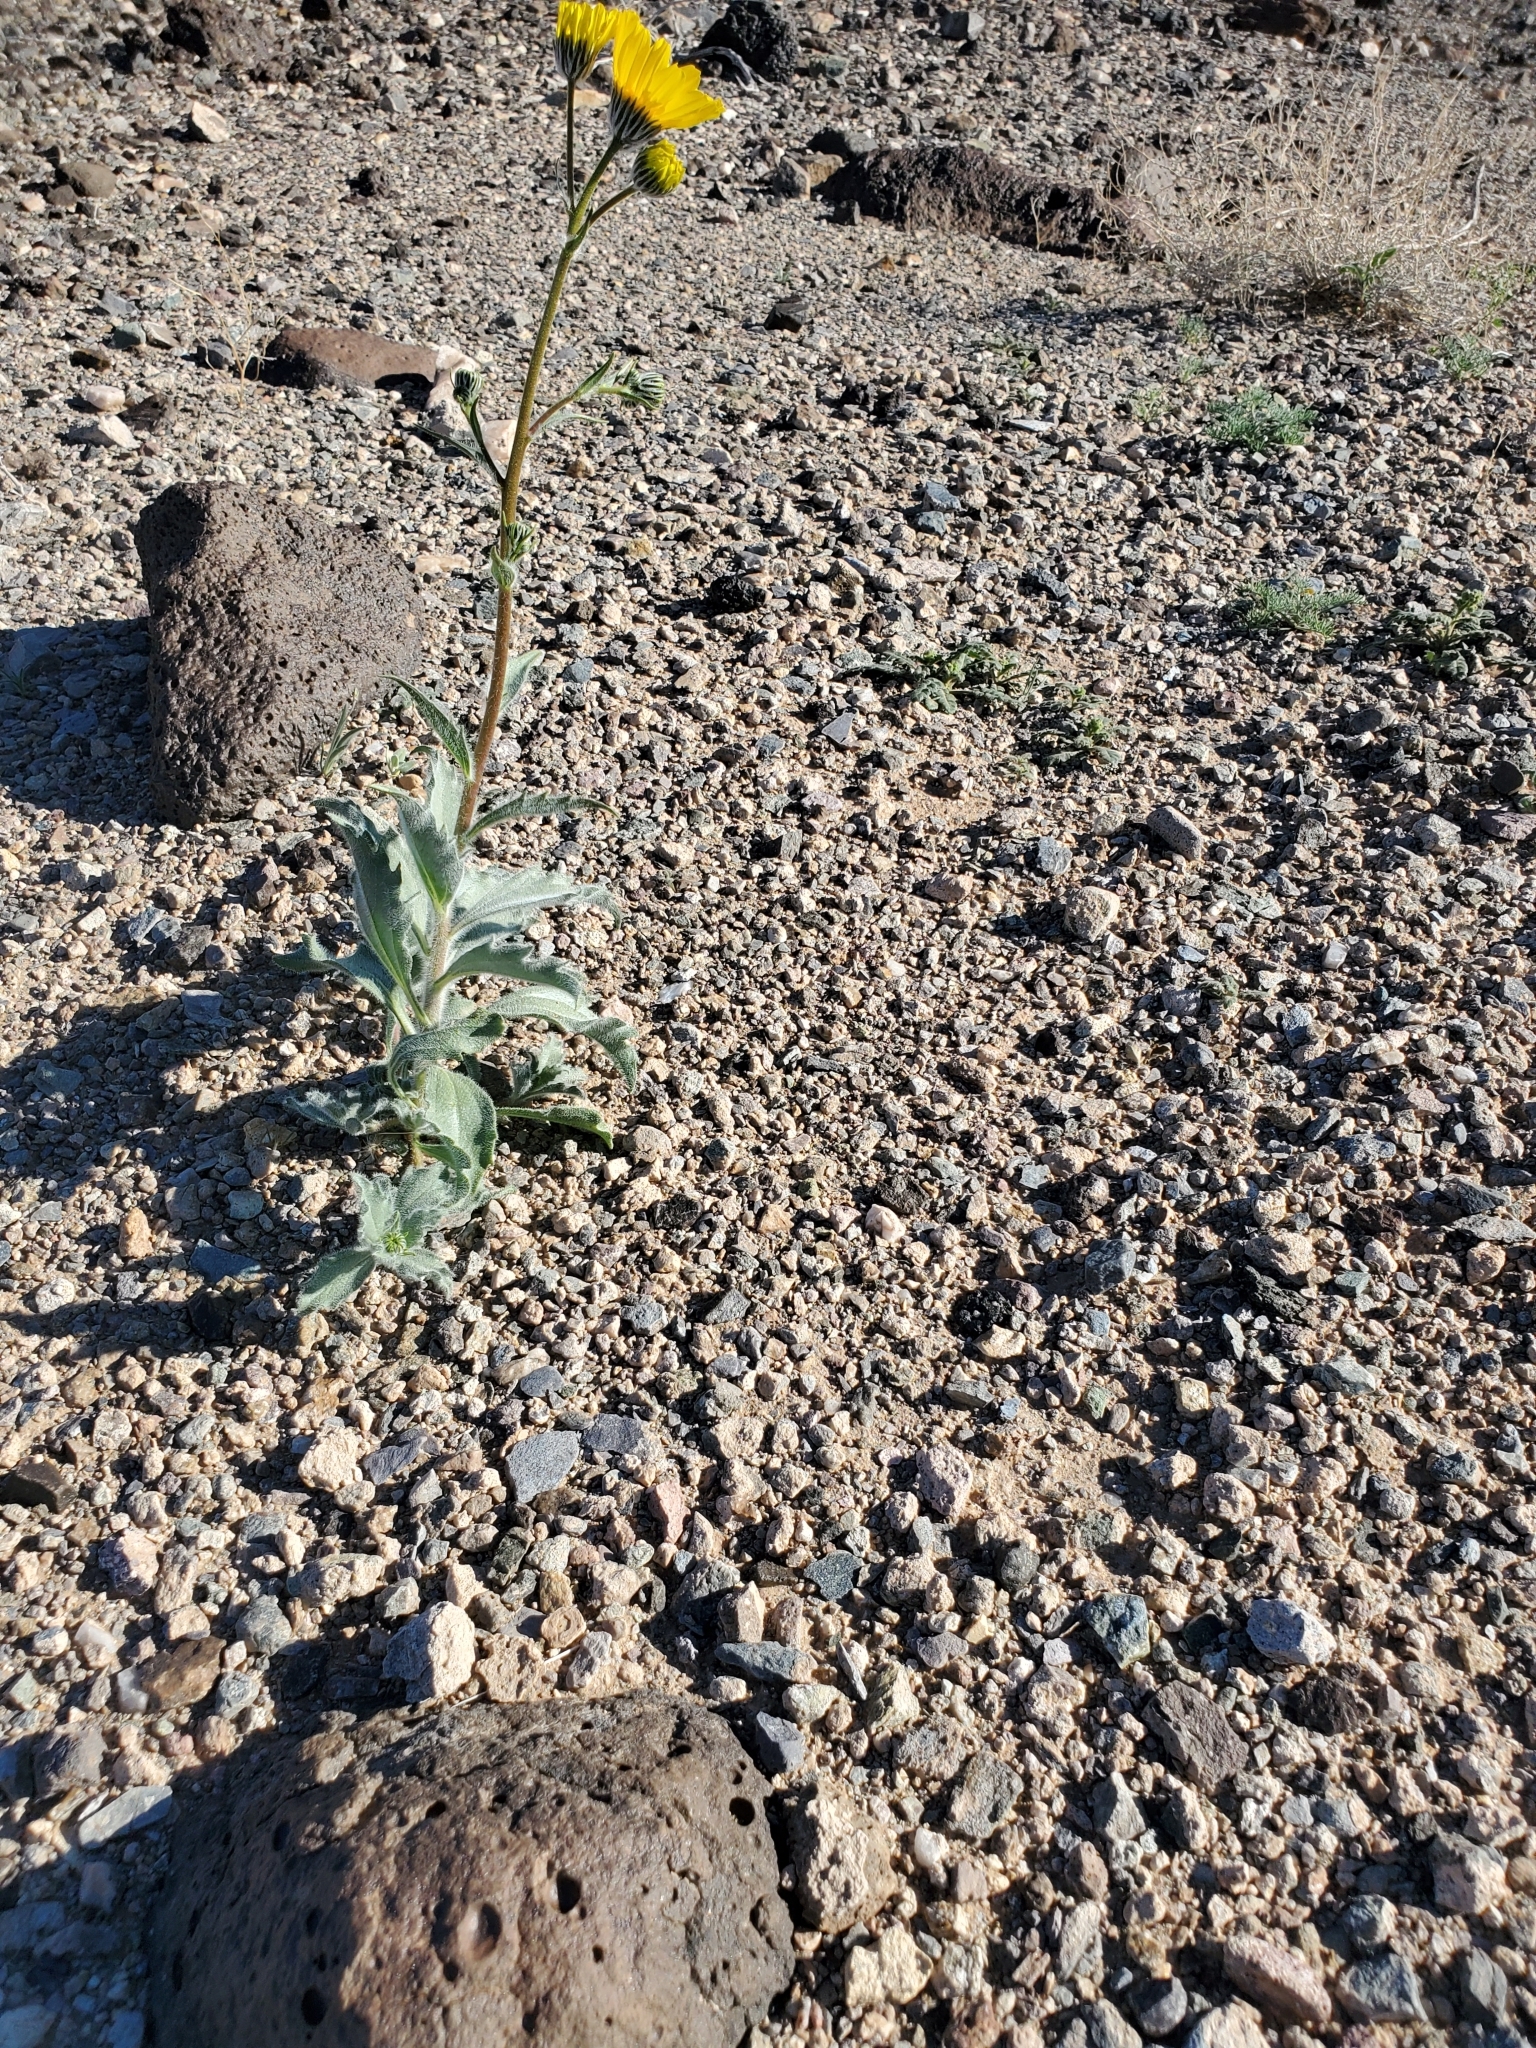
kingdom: Plantae
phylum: Tracheophyta
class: Magnoliopsida
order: Asterales
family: Asteraceae
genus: Geraea
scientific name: Geraea canescens
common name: Desert-gold
